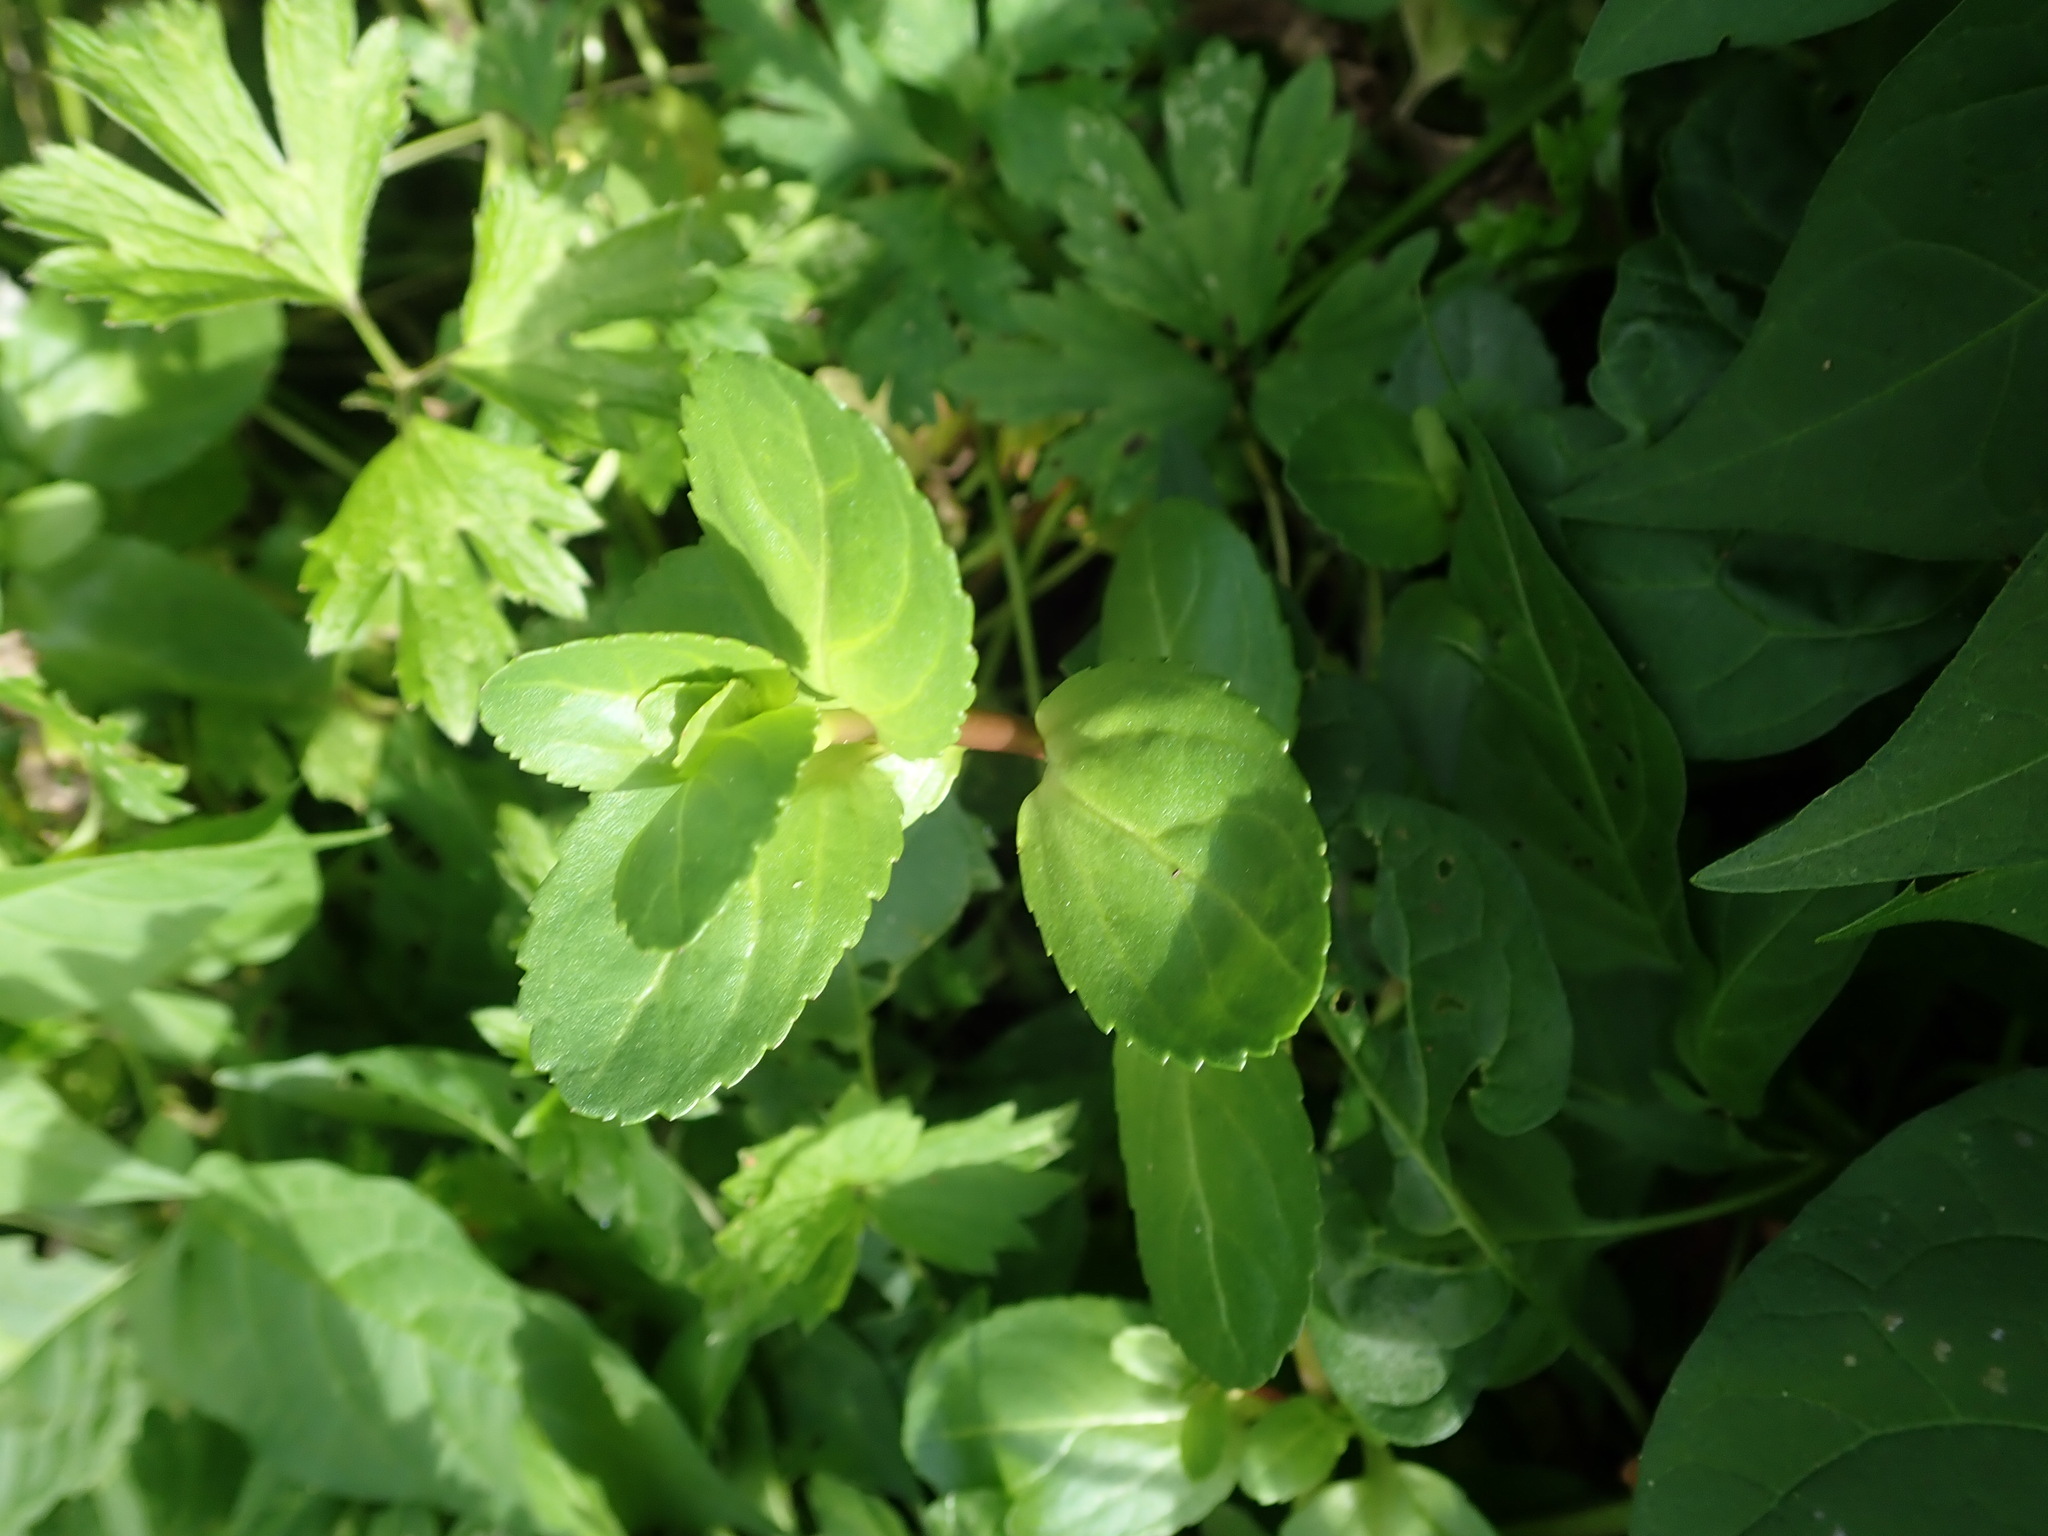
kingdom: Plantae
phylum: Tracheophyta
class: Magnoliopsida
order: Lamiales
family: Plantaginaceae
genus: Veronica
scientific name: Veronica beccabunga
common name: Brooklime
